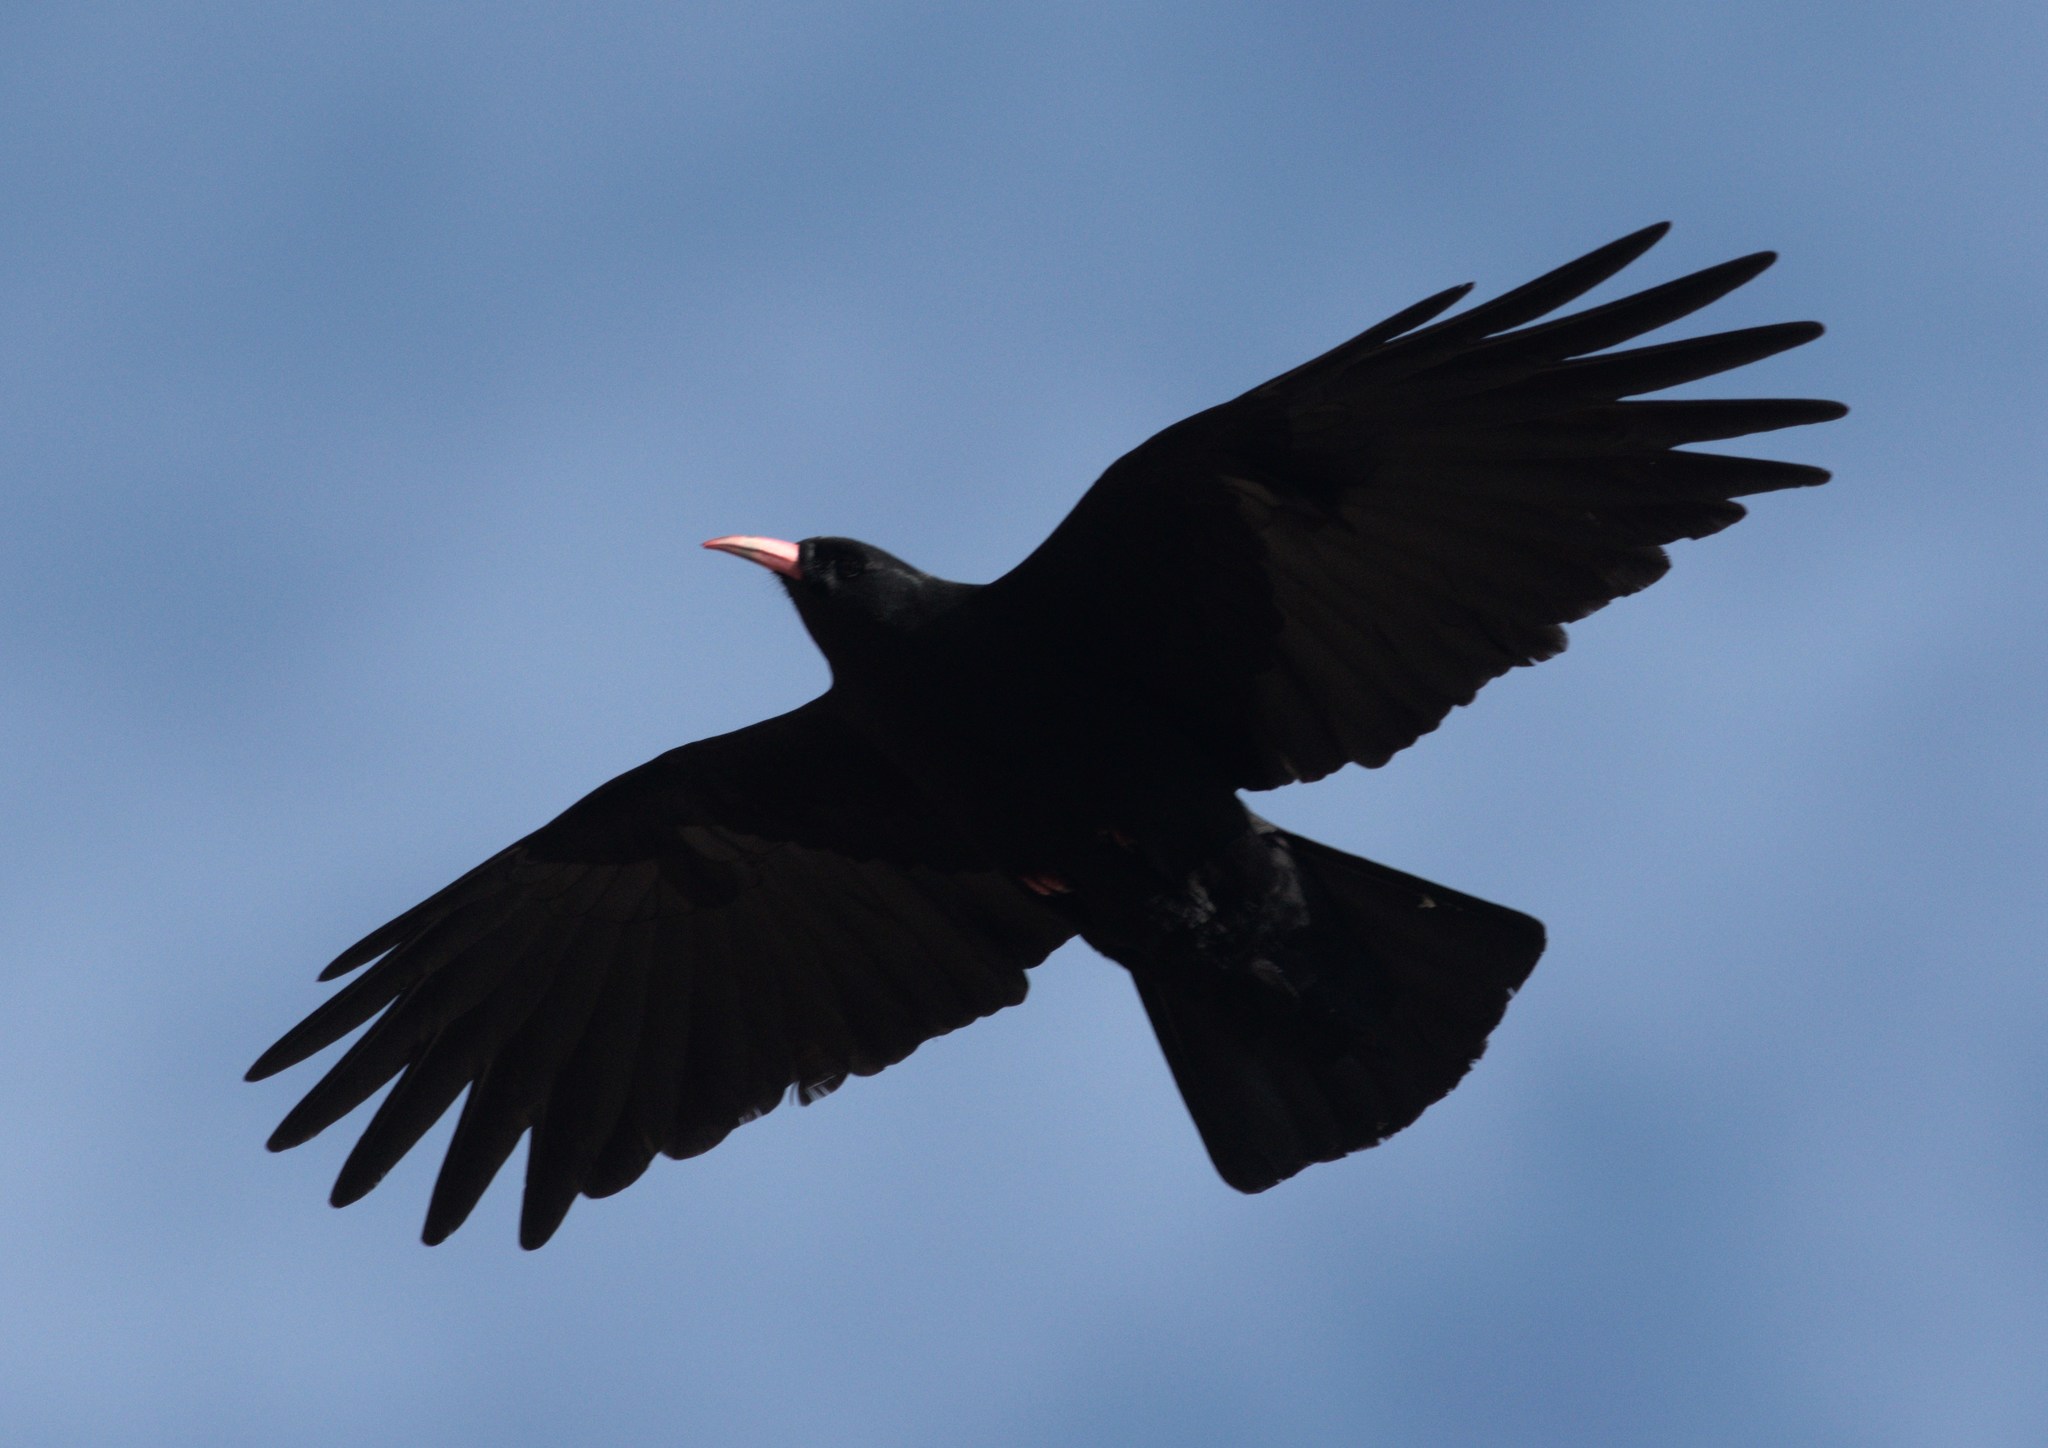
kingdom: Animalia
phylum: Chordata
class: Aves
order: Passeriformes
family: Corvidae
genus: Pyrrhocorax
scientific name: Pyrrhocorax pyrrhocorax
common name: Red-billed chough
